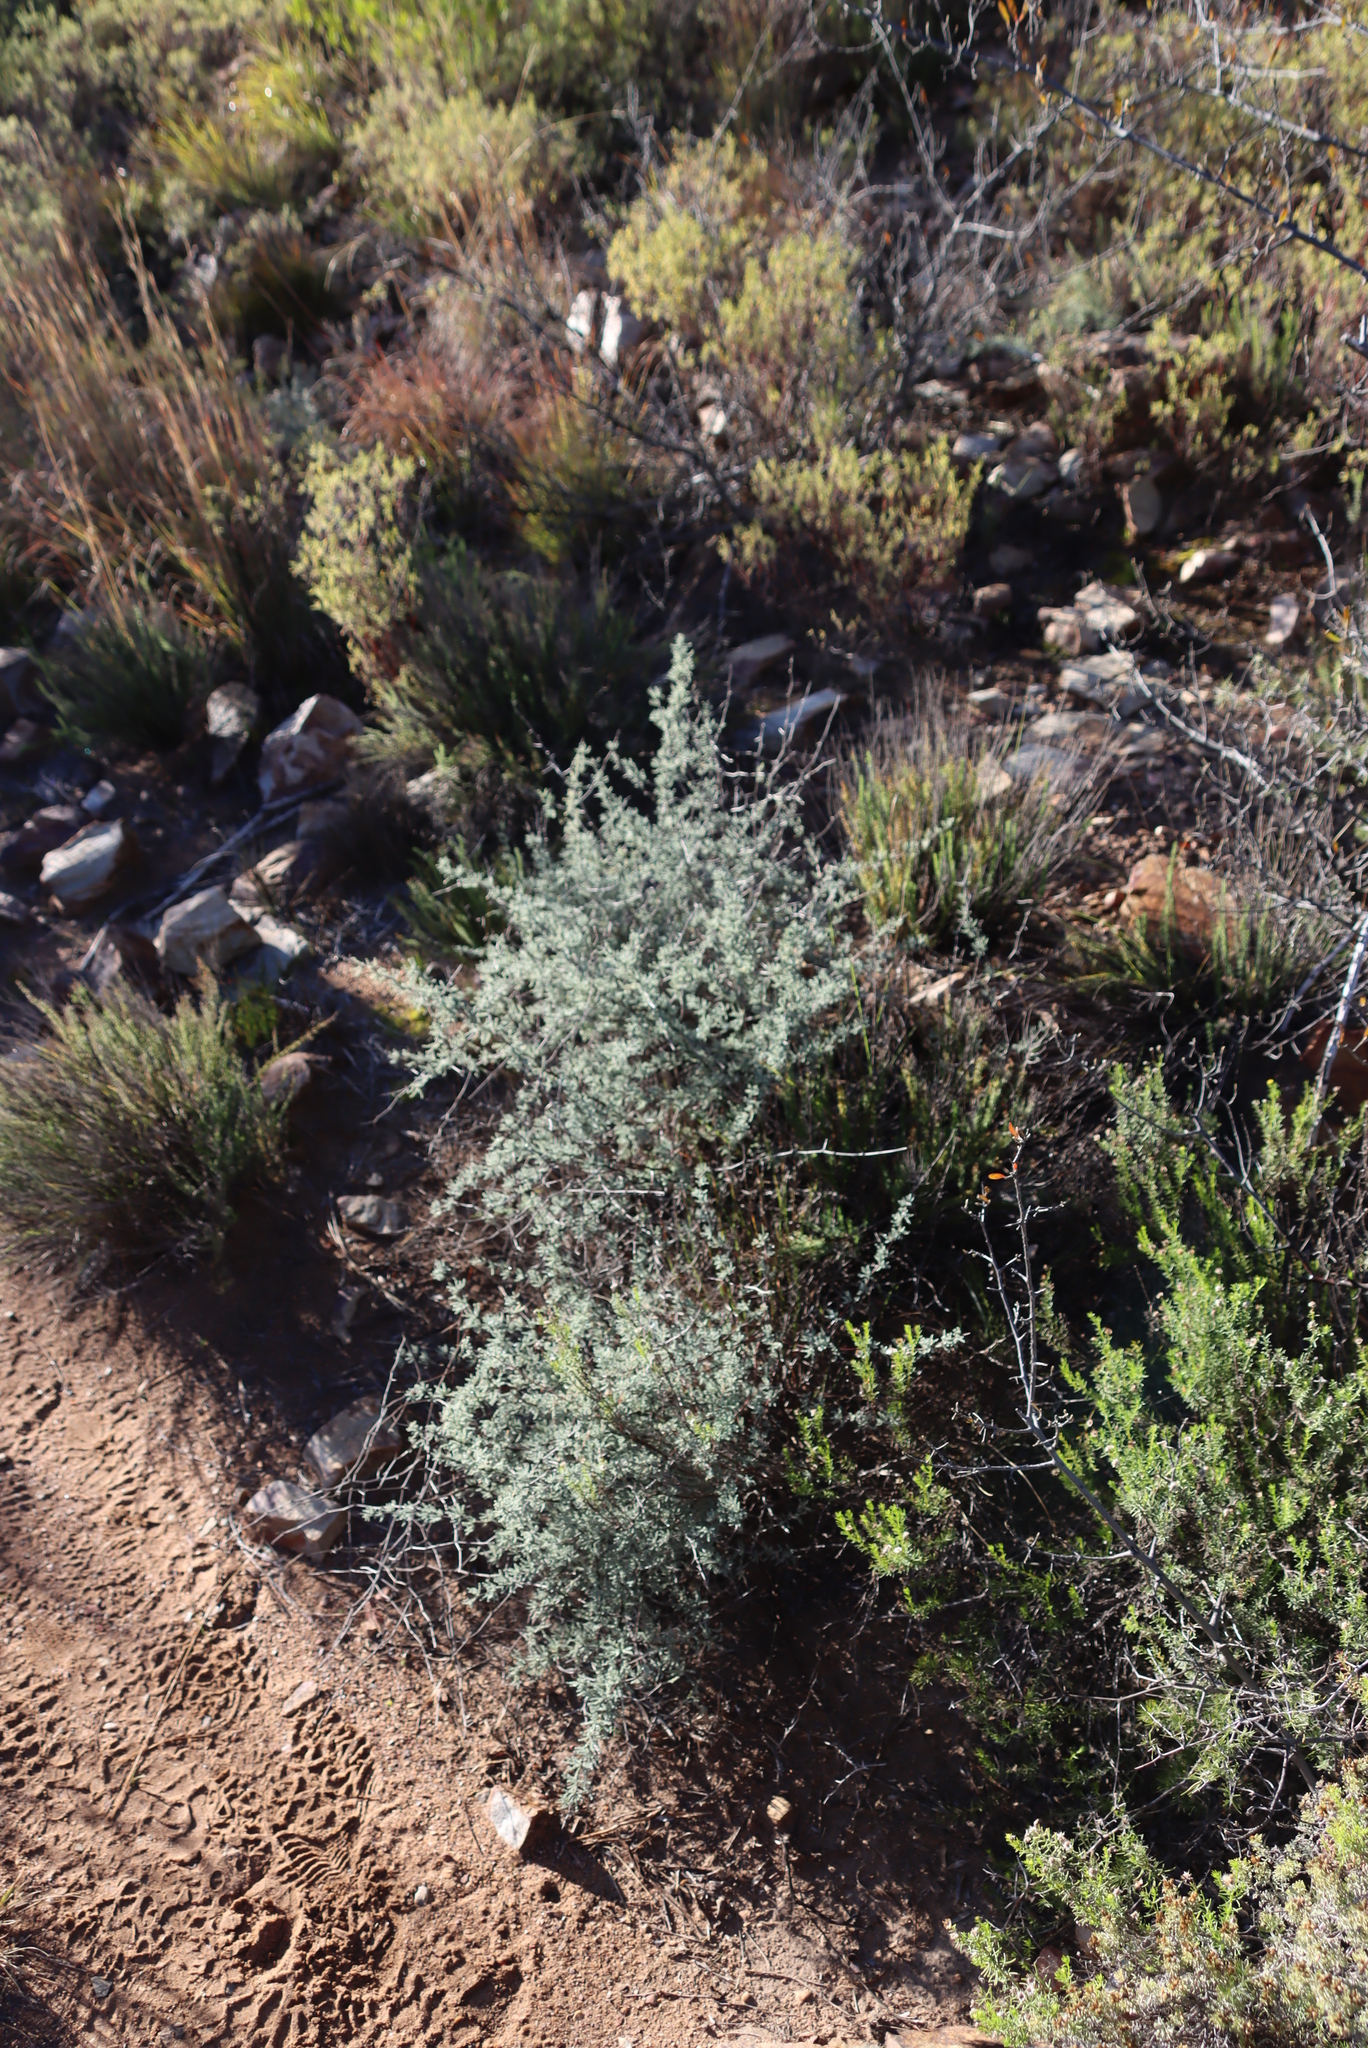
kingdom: Plantae
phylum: Tracheophyta
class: Liliopsida
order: Asparagales
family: Asparagaceae
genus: Asparagus
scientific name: Asparagus capensis
